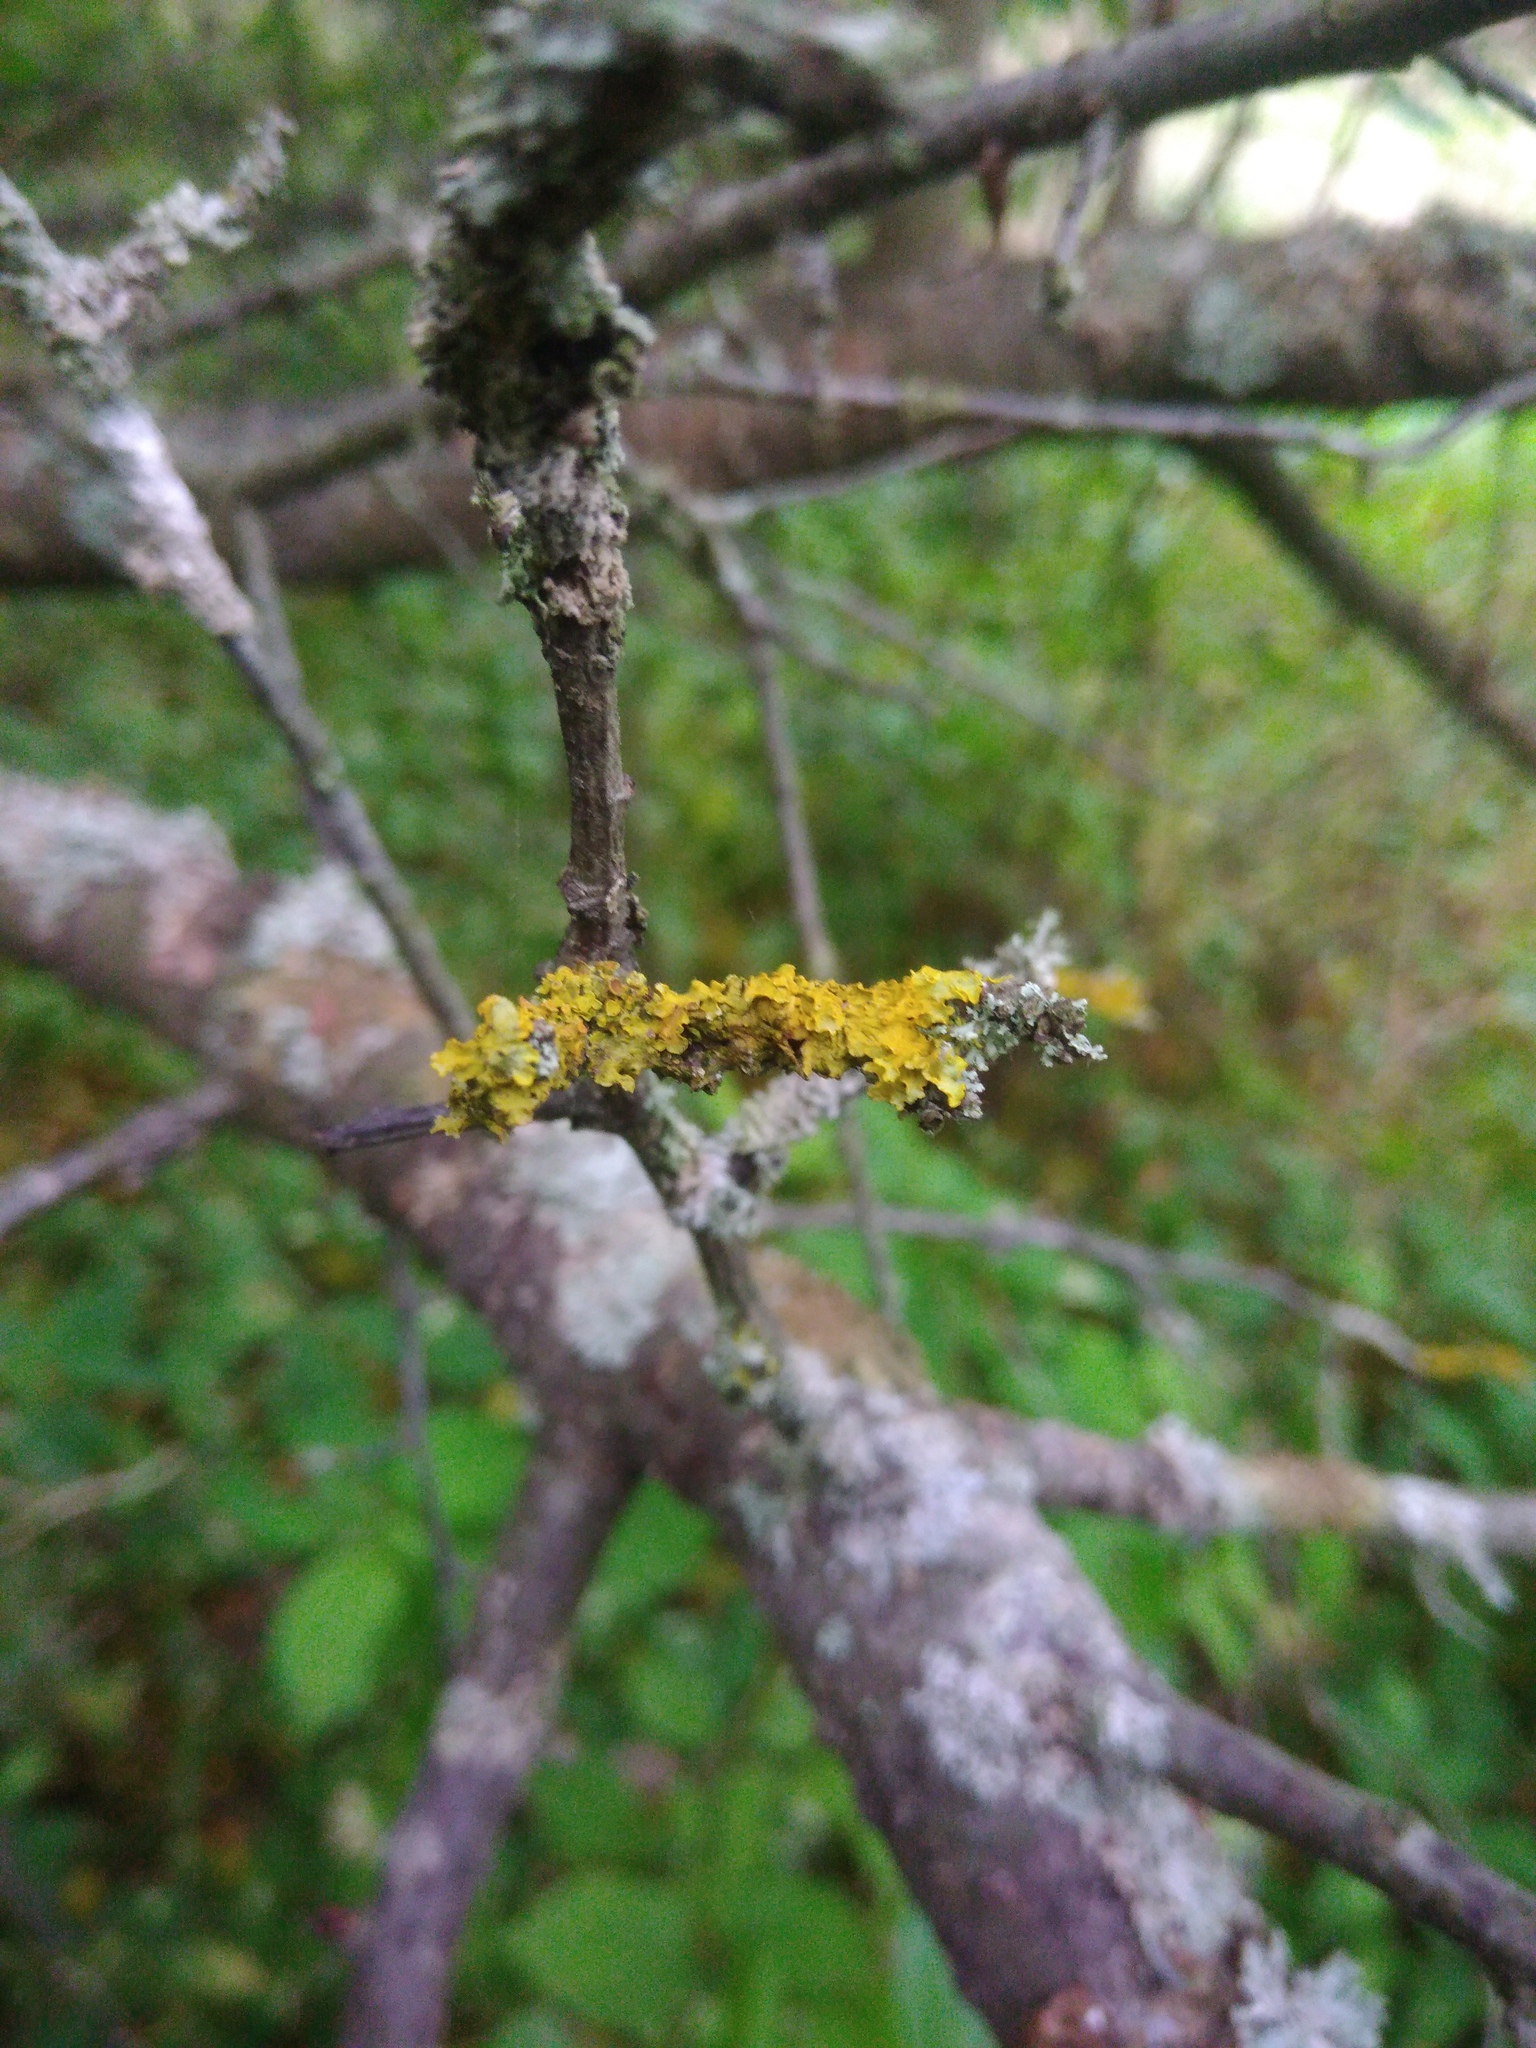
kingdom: Fungi
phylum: Ascomycota
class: Lecanoromycetes
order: Teloschistales
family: Teloschistaceae
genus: Xanthoria
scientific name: Xanthoria parietina
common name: Common orange lichen
